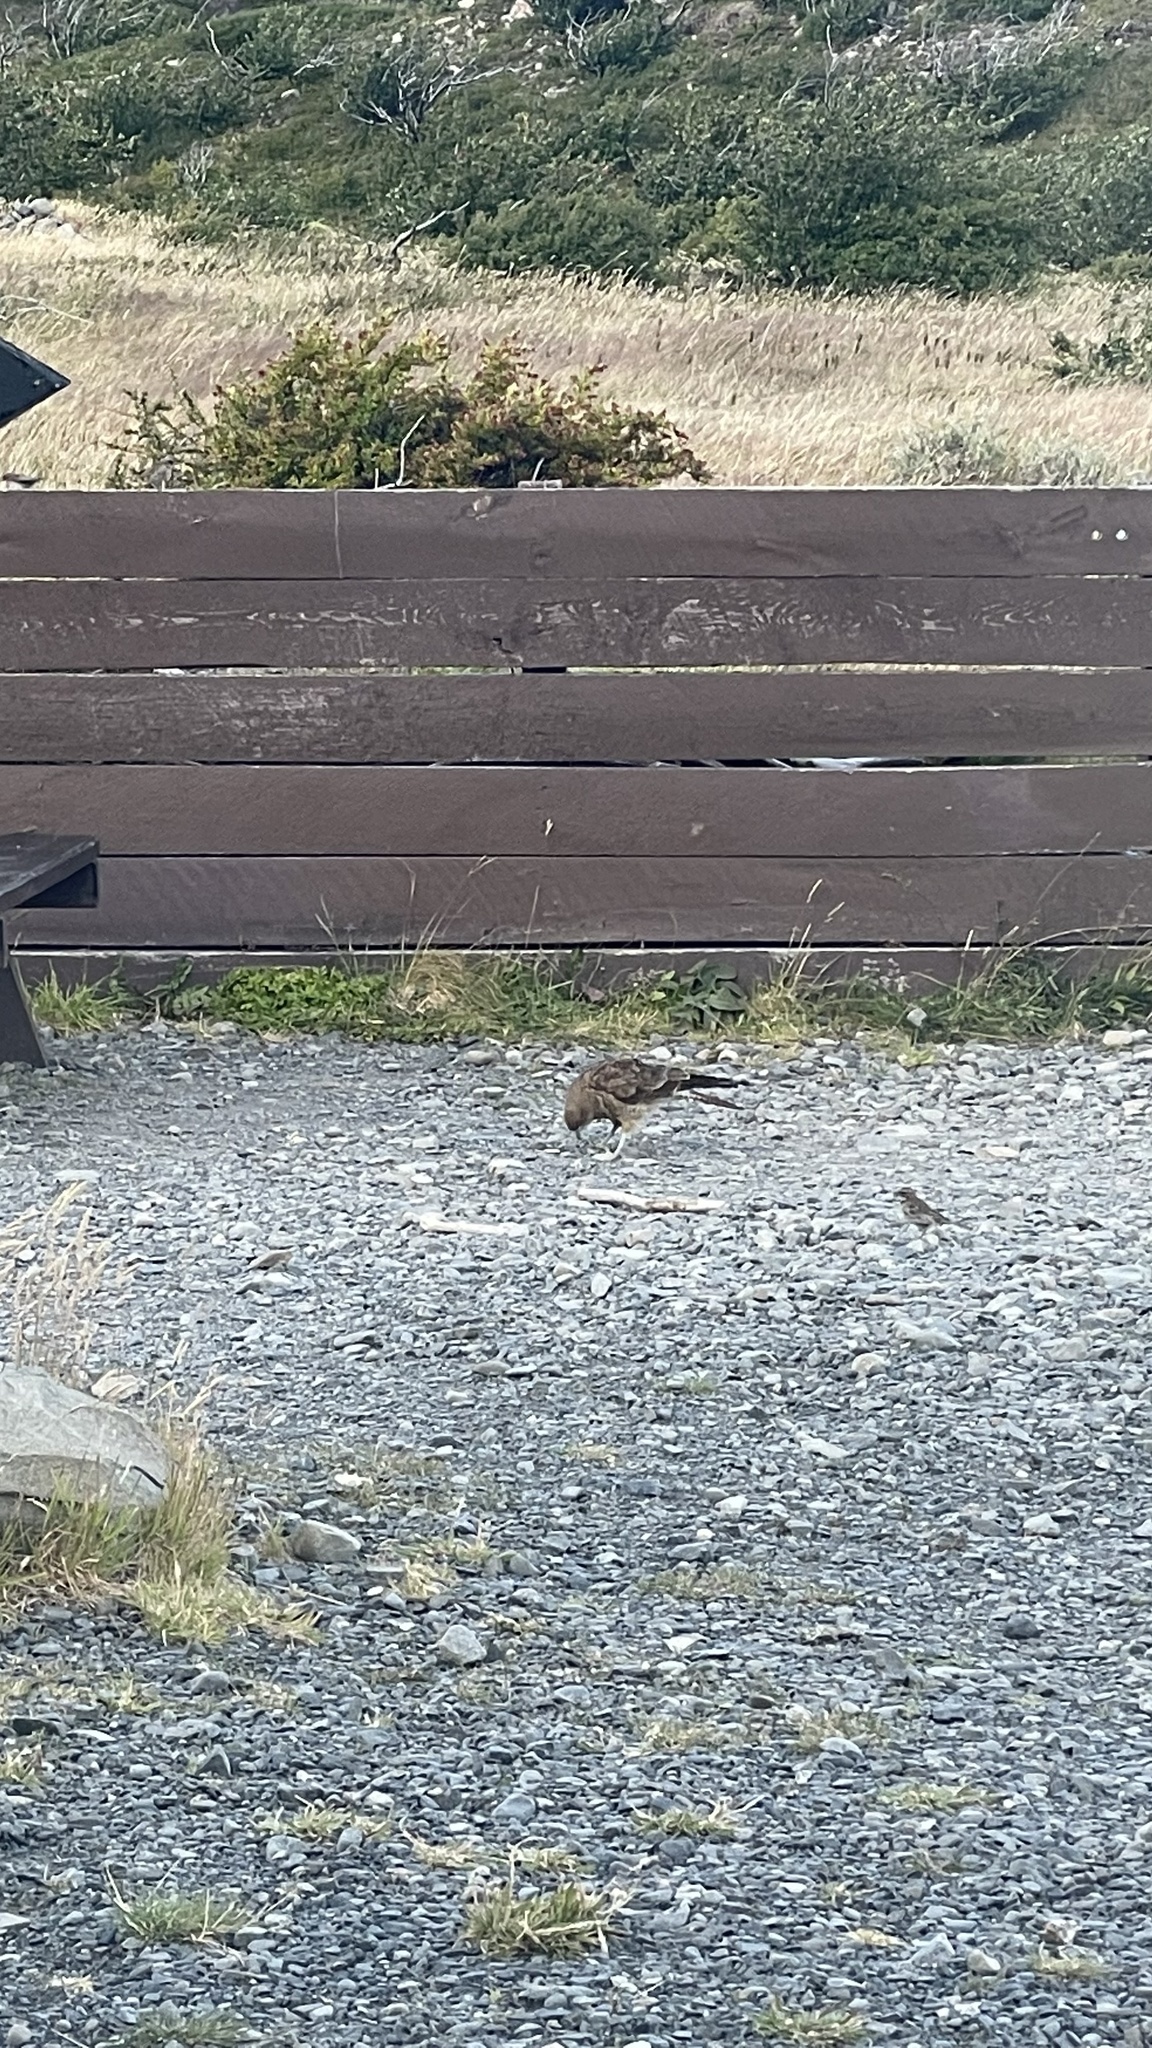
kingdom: Animalia
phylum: Chordata
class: Aves
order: Falconiformes
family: Falconidae
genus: Daptrius
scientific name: Daptrius
